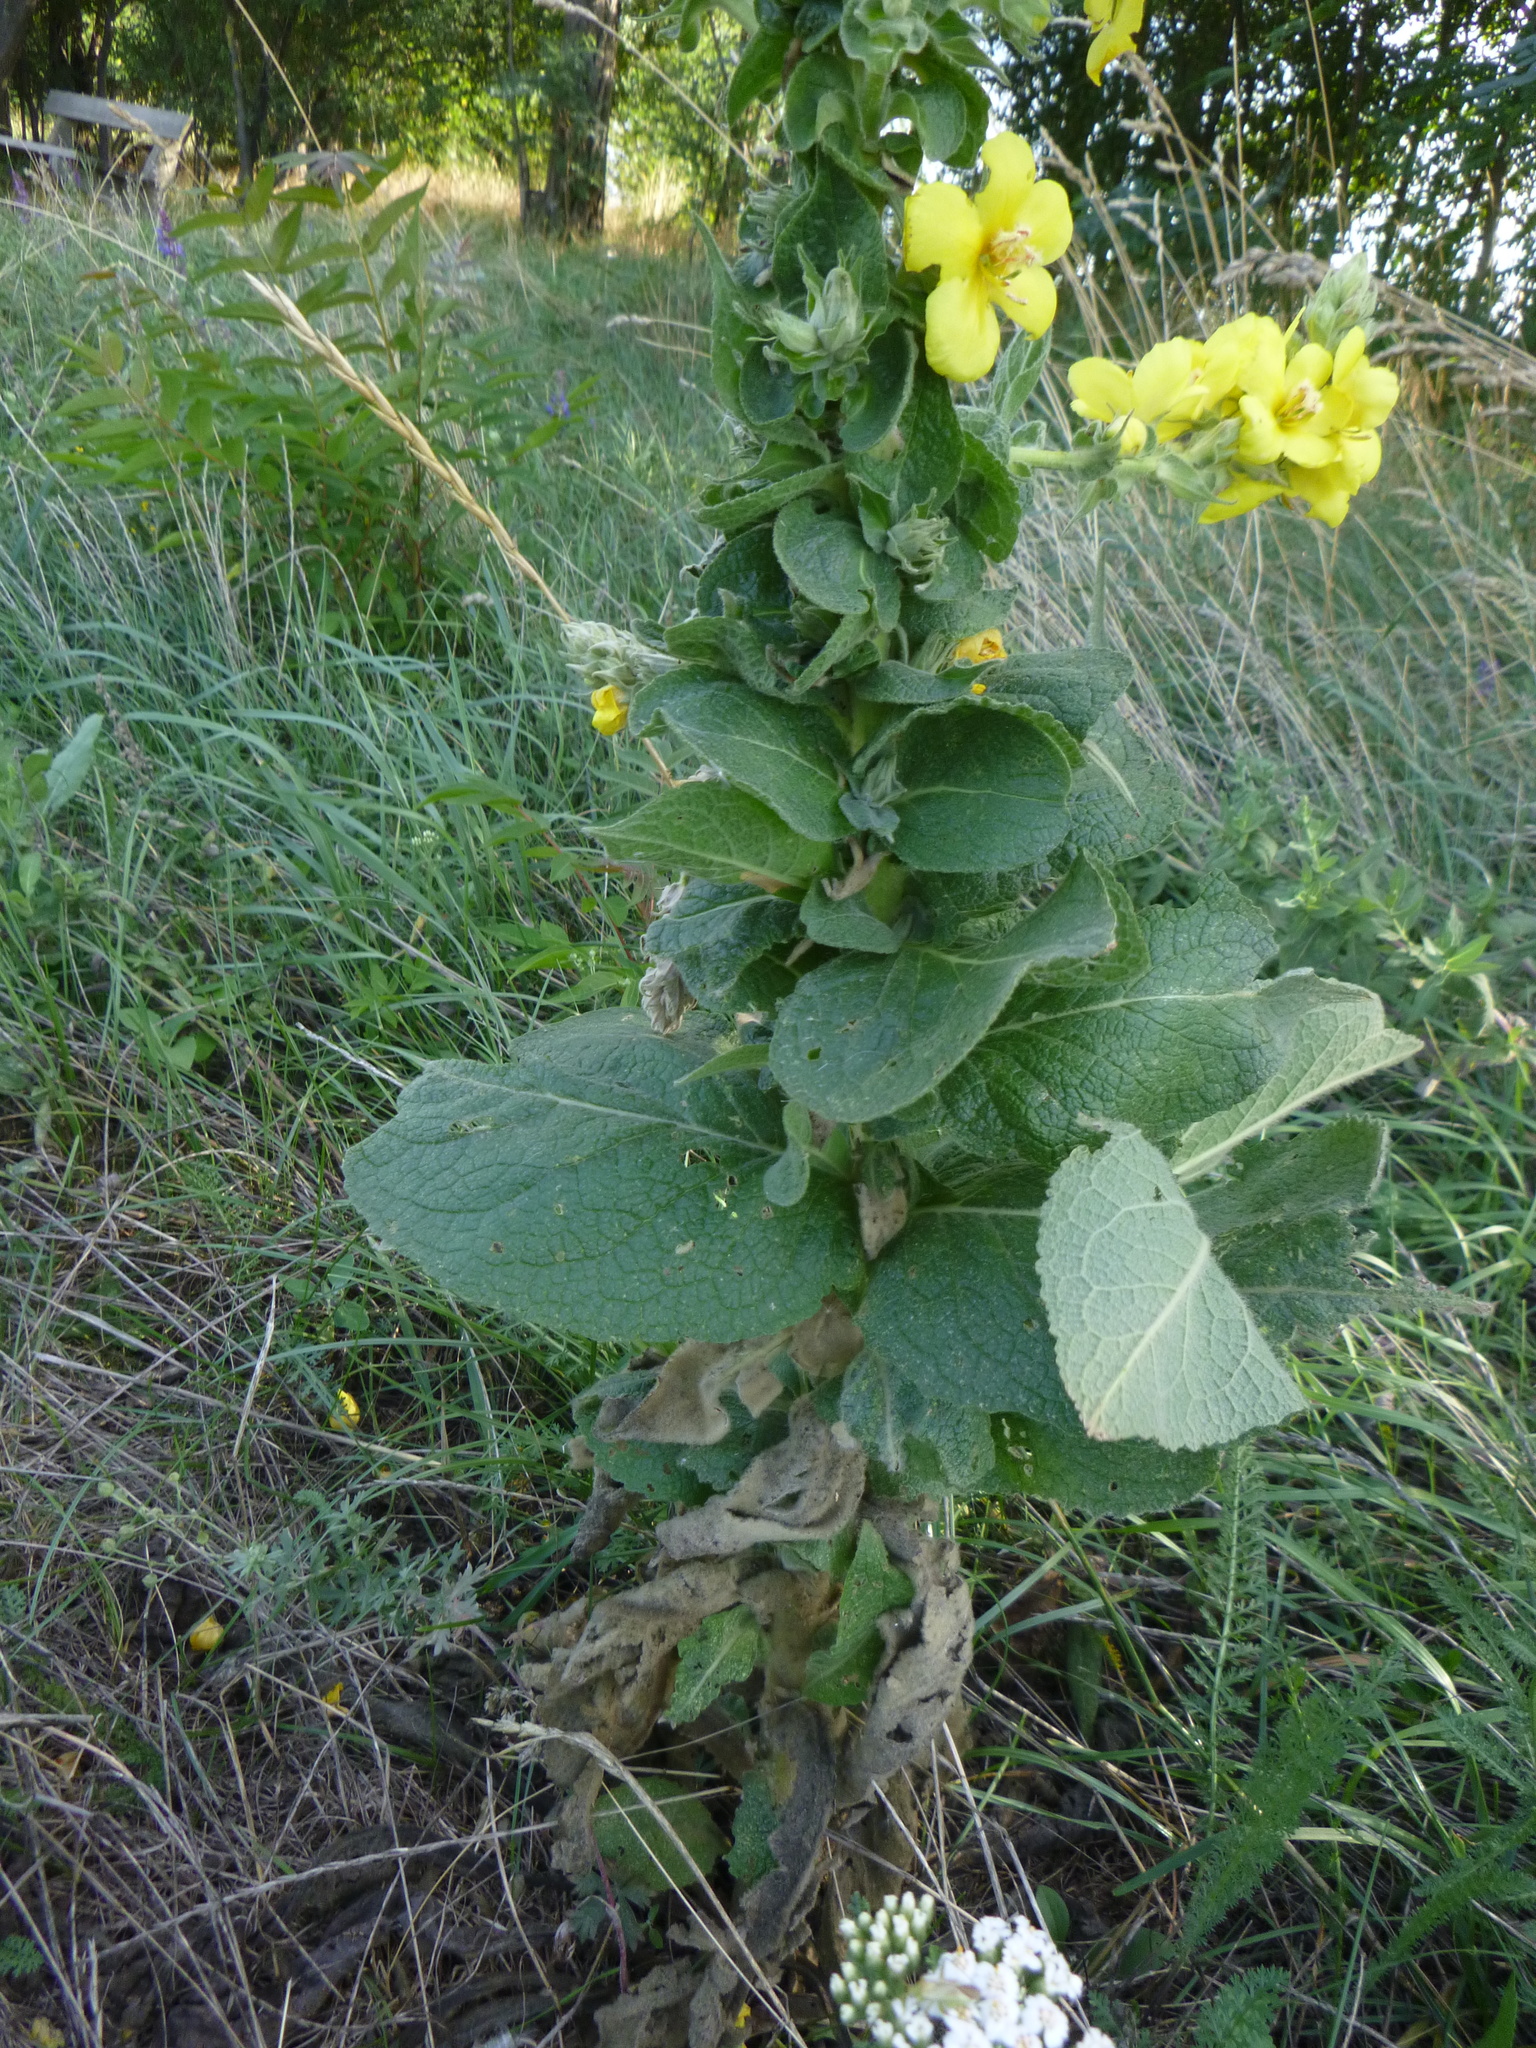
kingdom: Plantae
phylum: Tracheophyta
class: Magnoliopsida
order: Lamiales
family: Scrophulariaceae
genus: Verbascum
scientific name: Verbascum phlomoides
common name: Orange mullein
